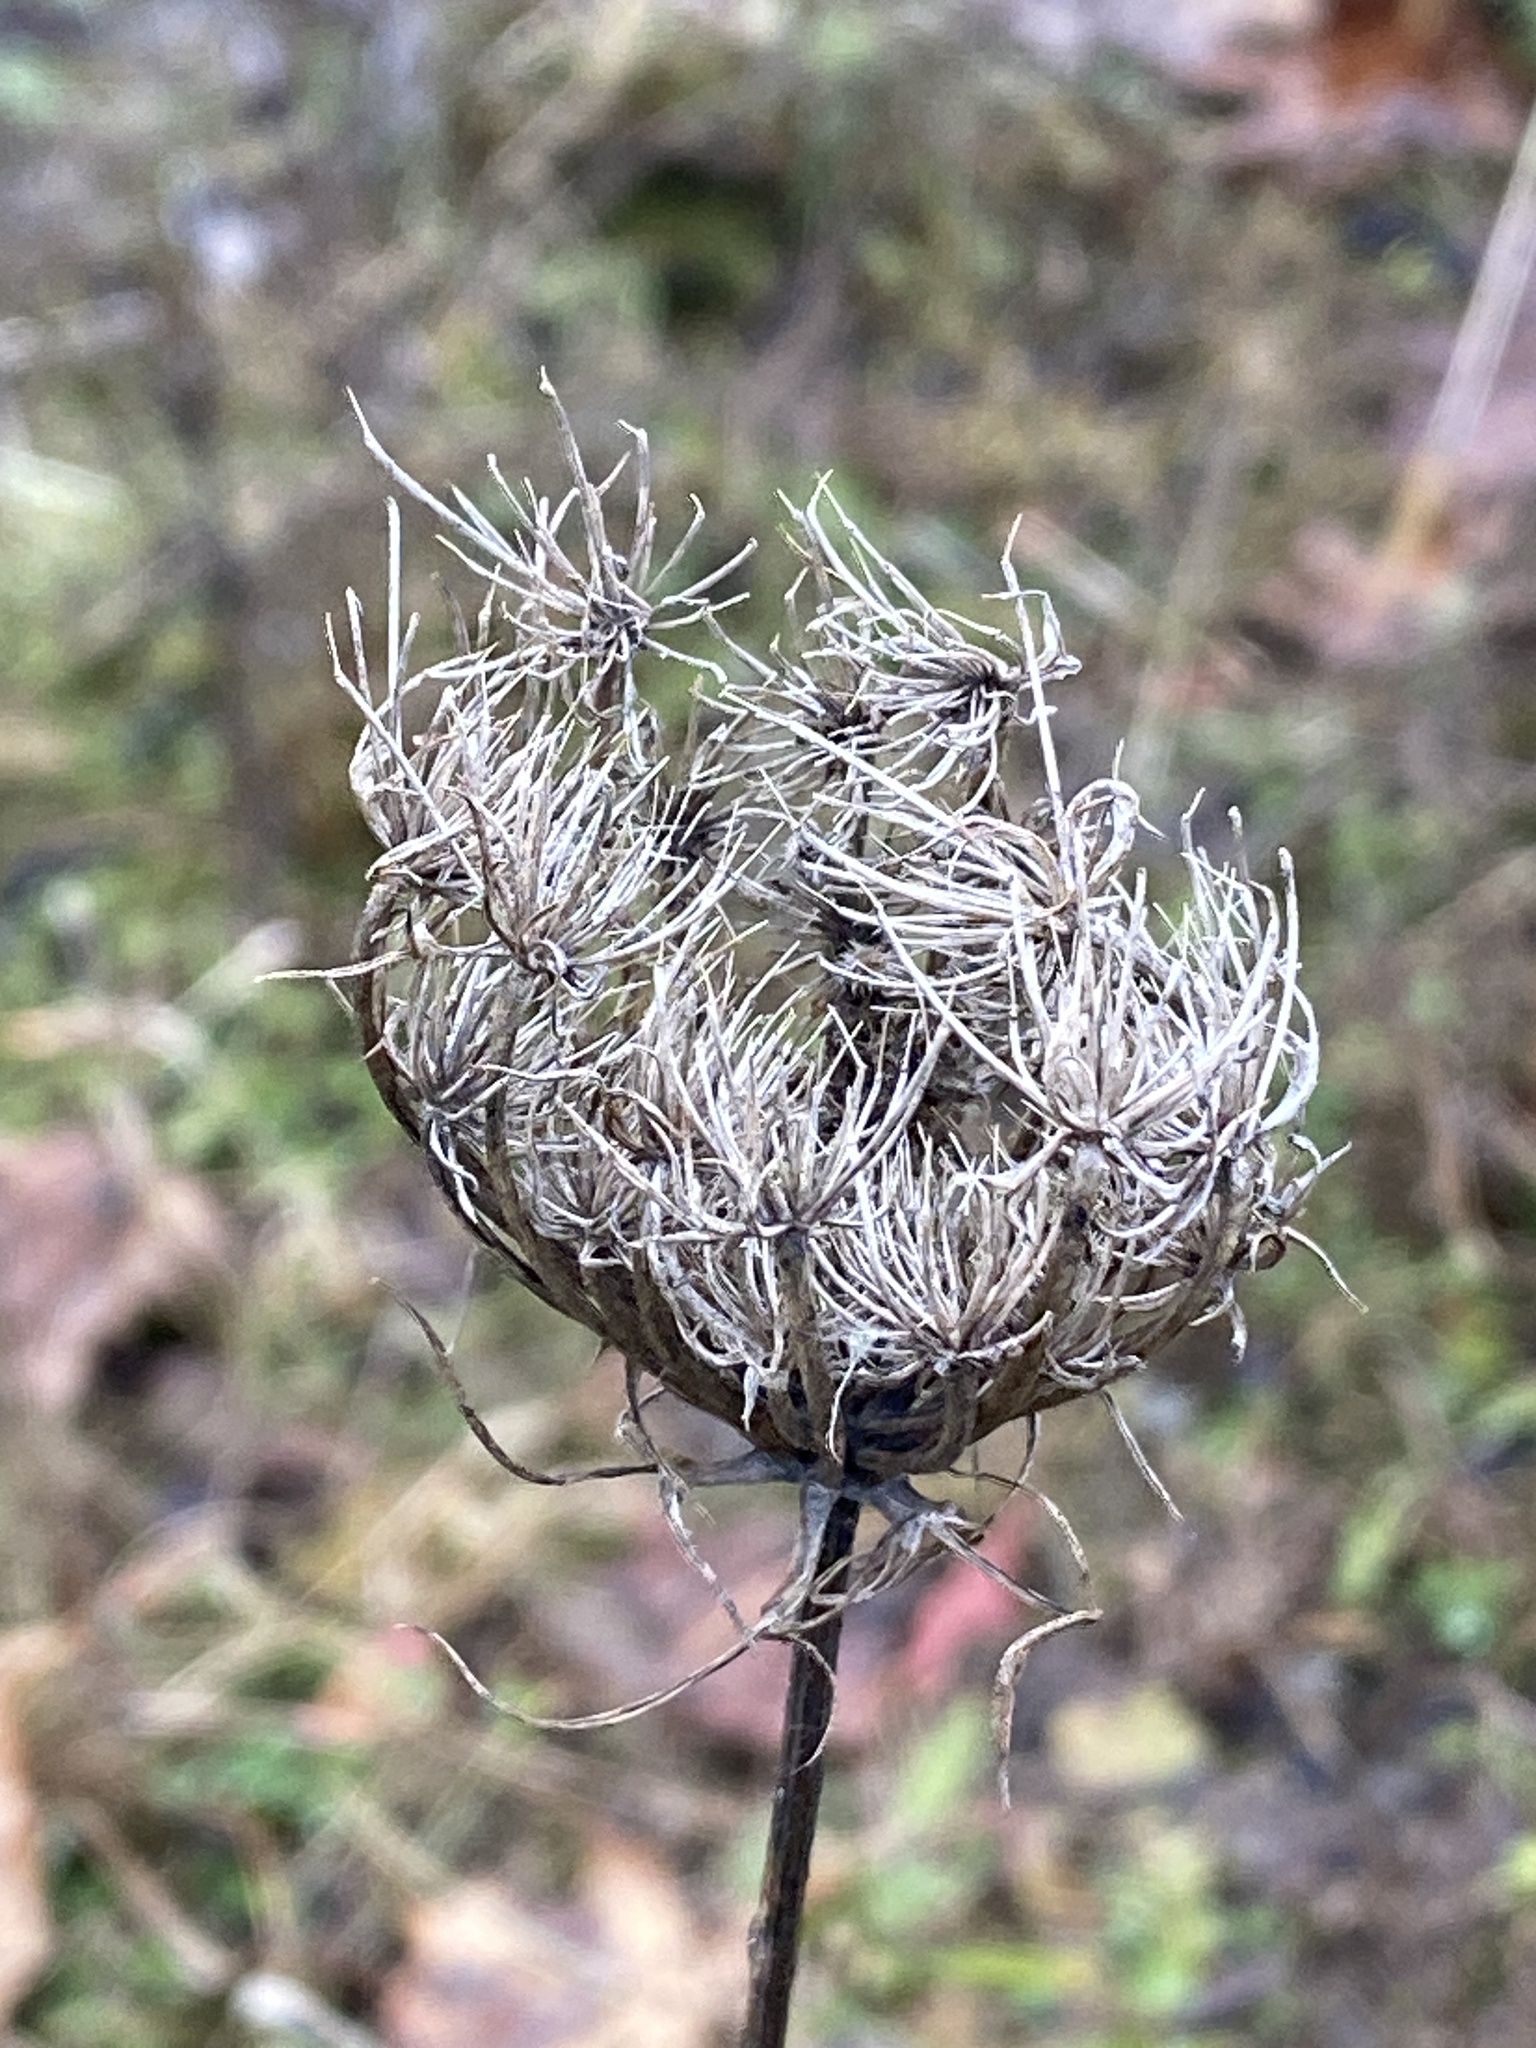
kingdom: Plantae
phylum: Tracheophyta
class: Magnoliopsida
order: Apiales
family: Apiaceae
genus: Daucus
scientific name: Daucus carota
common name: Wild carrot
